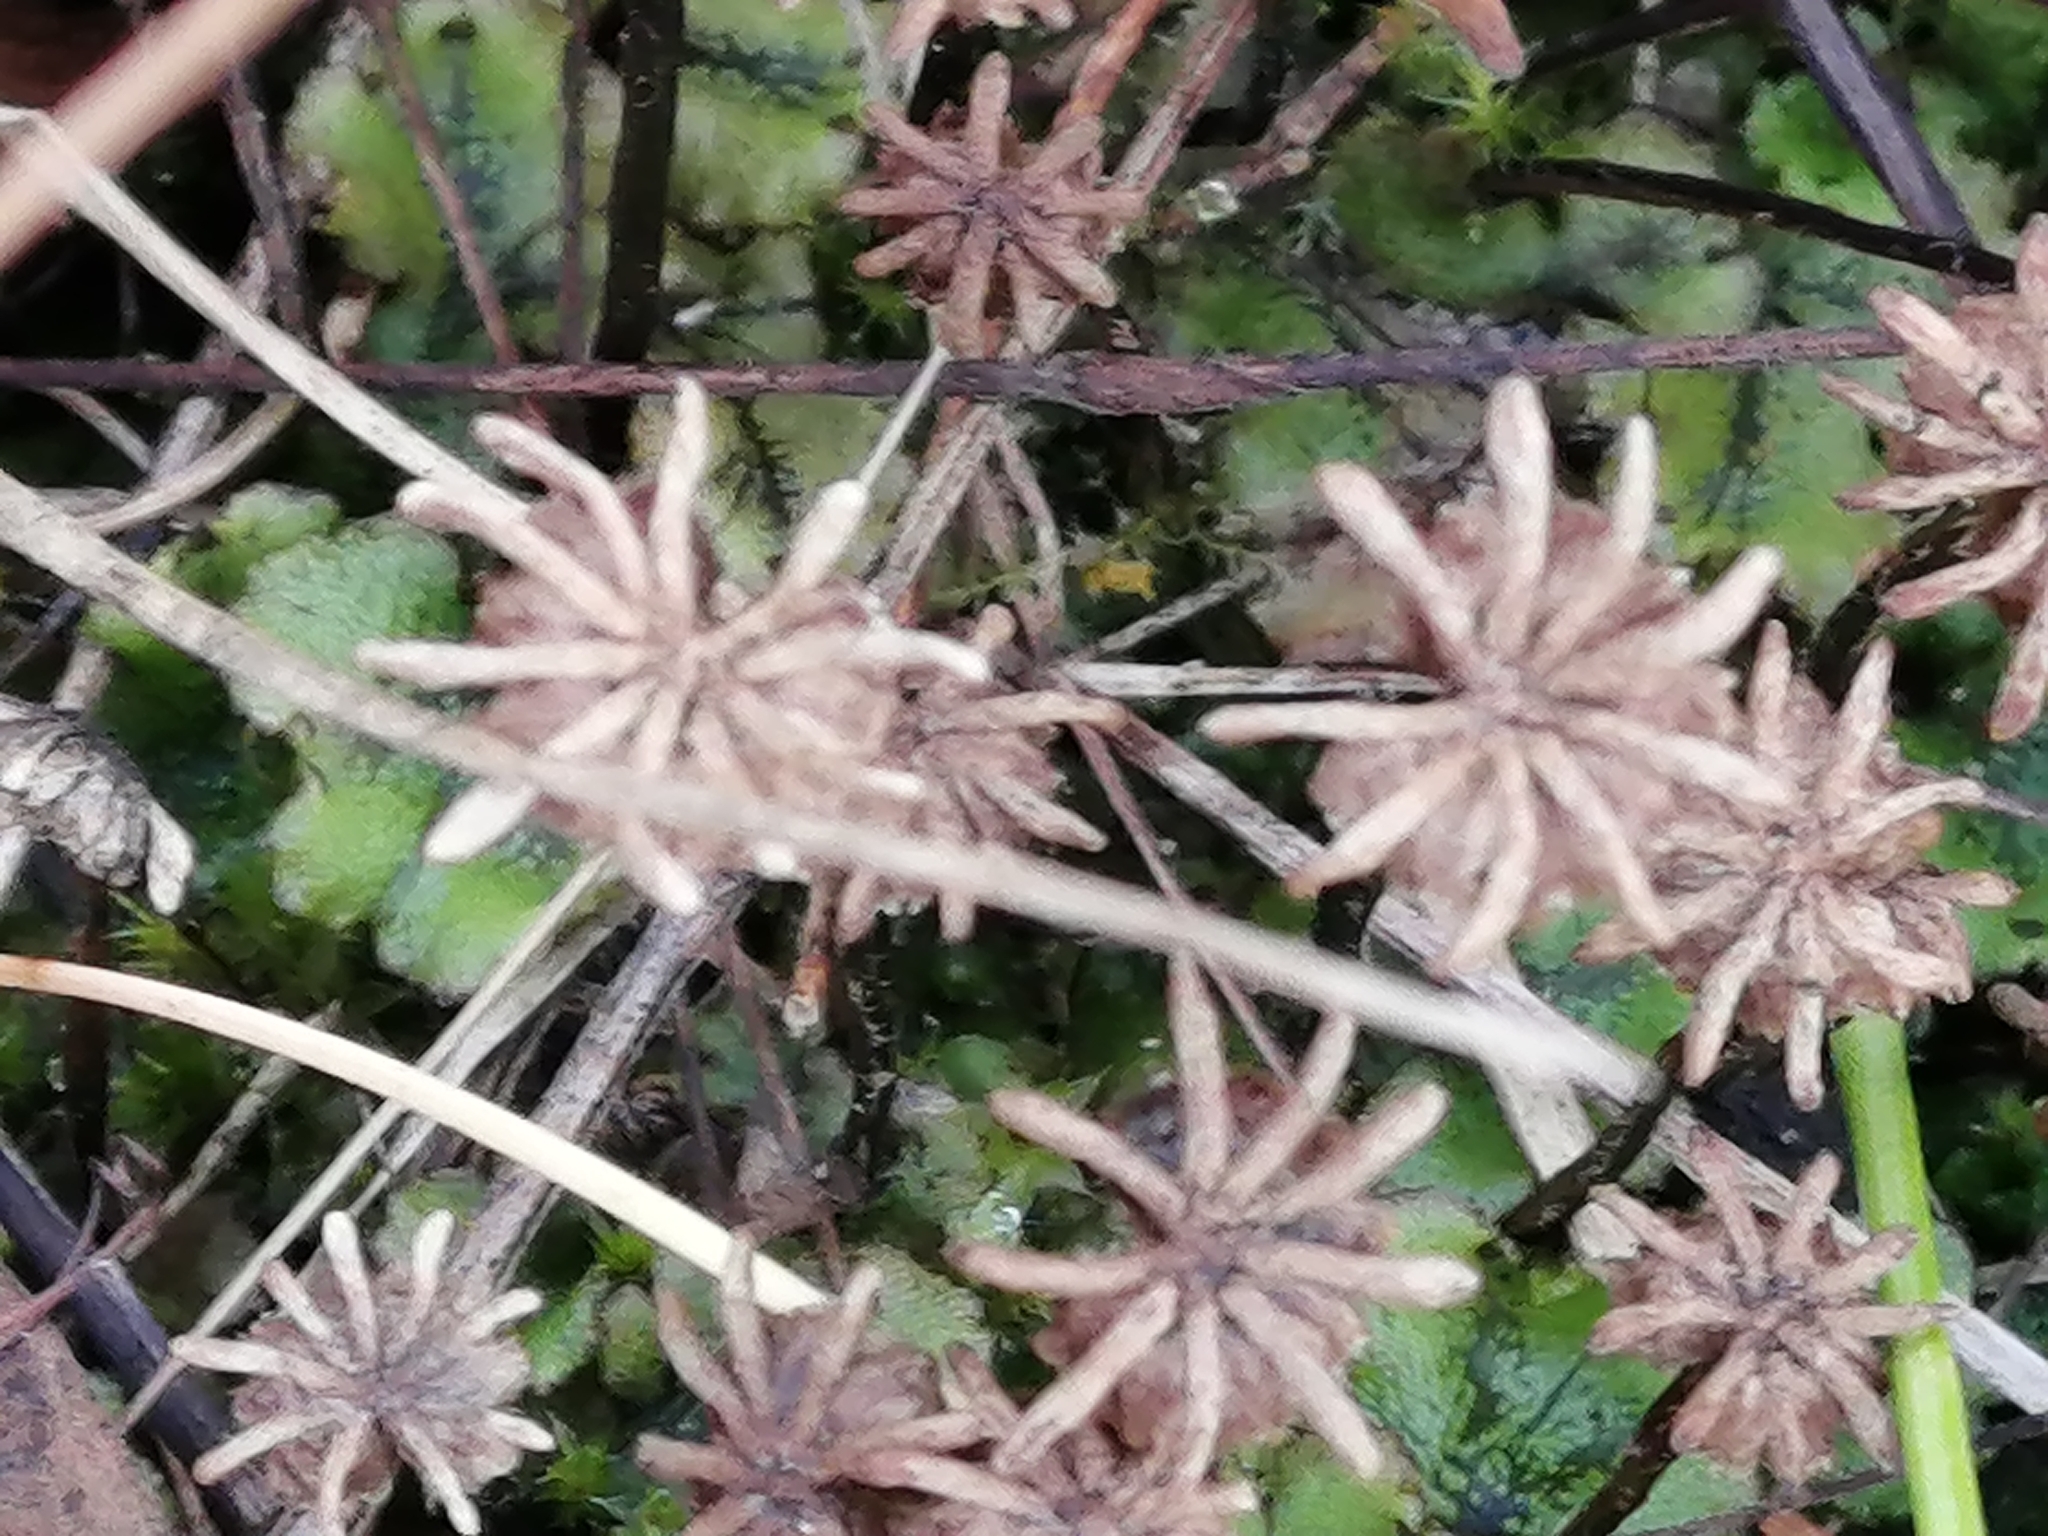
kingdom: Plantae
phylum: Marchantiophyta
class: Marchantiopsida
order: Marchantiales
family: Marchantiaceae
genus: Marchantia
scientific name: Marchantia polymorpha
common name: Common liverwort
